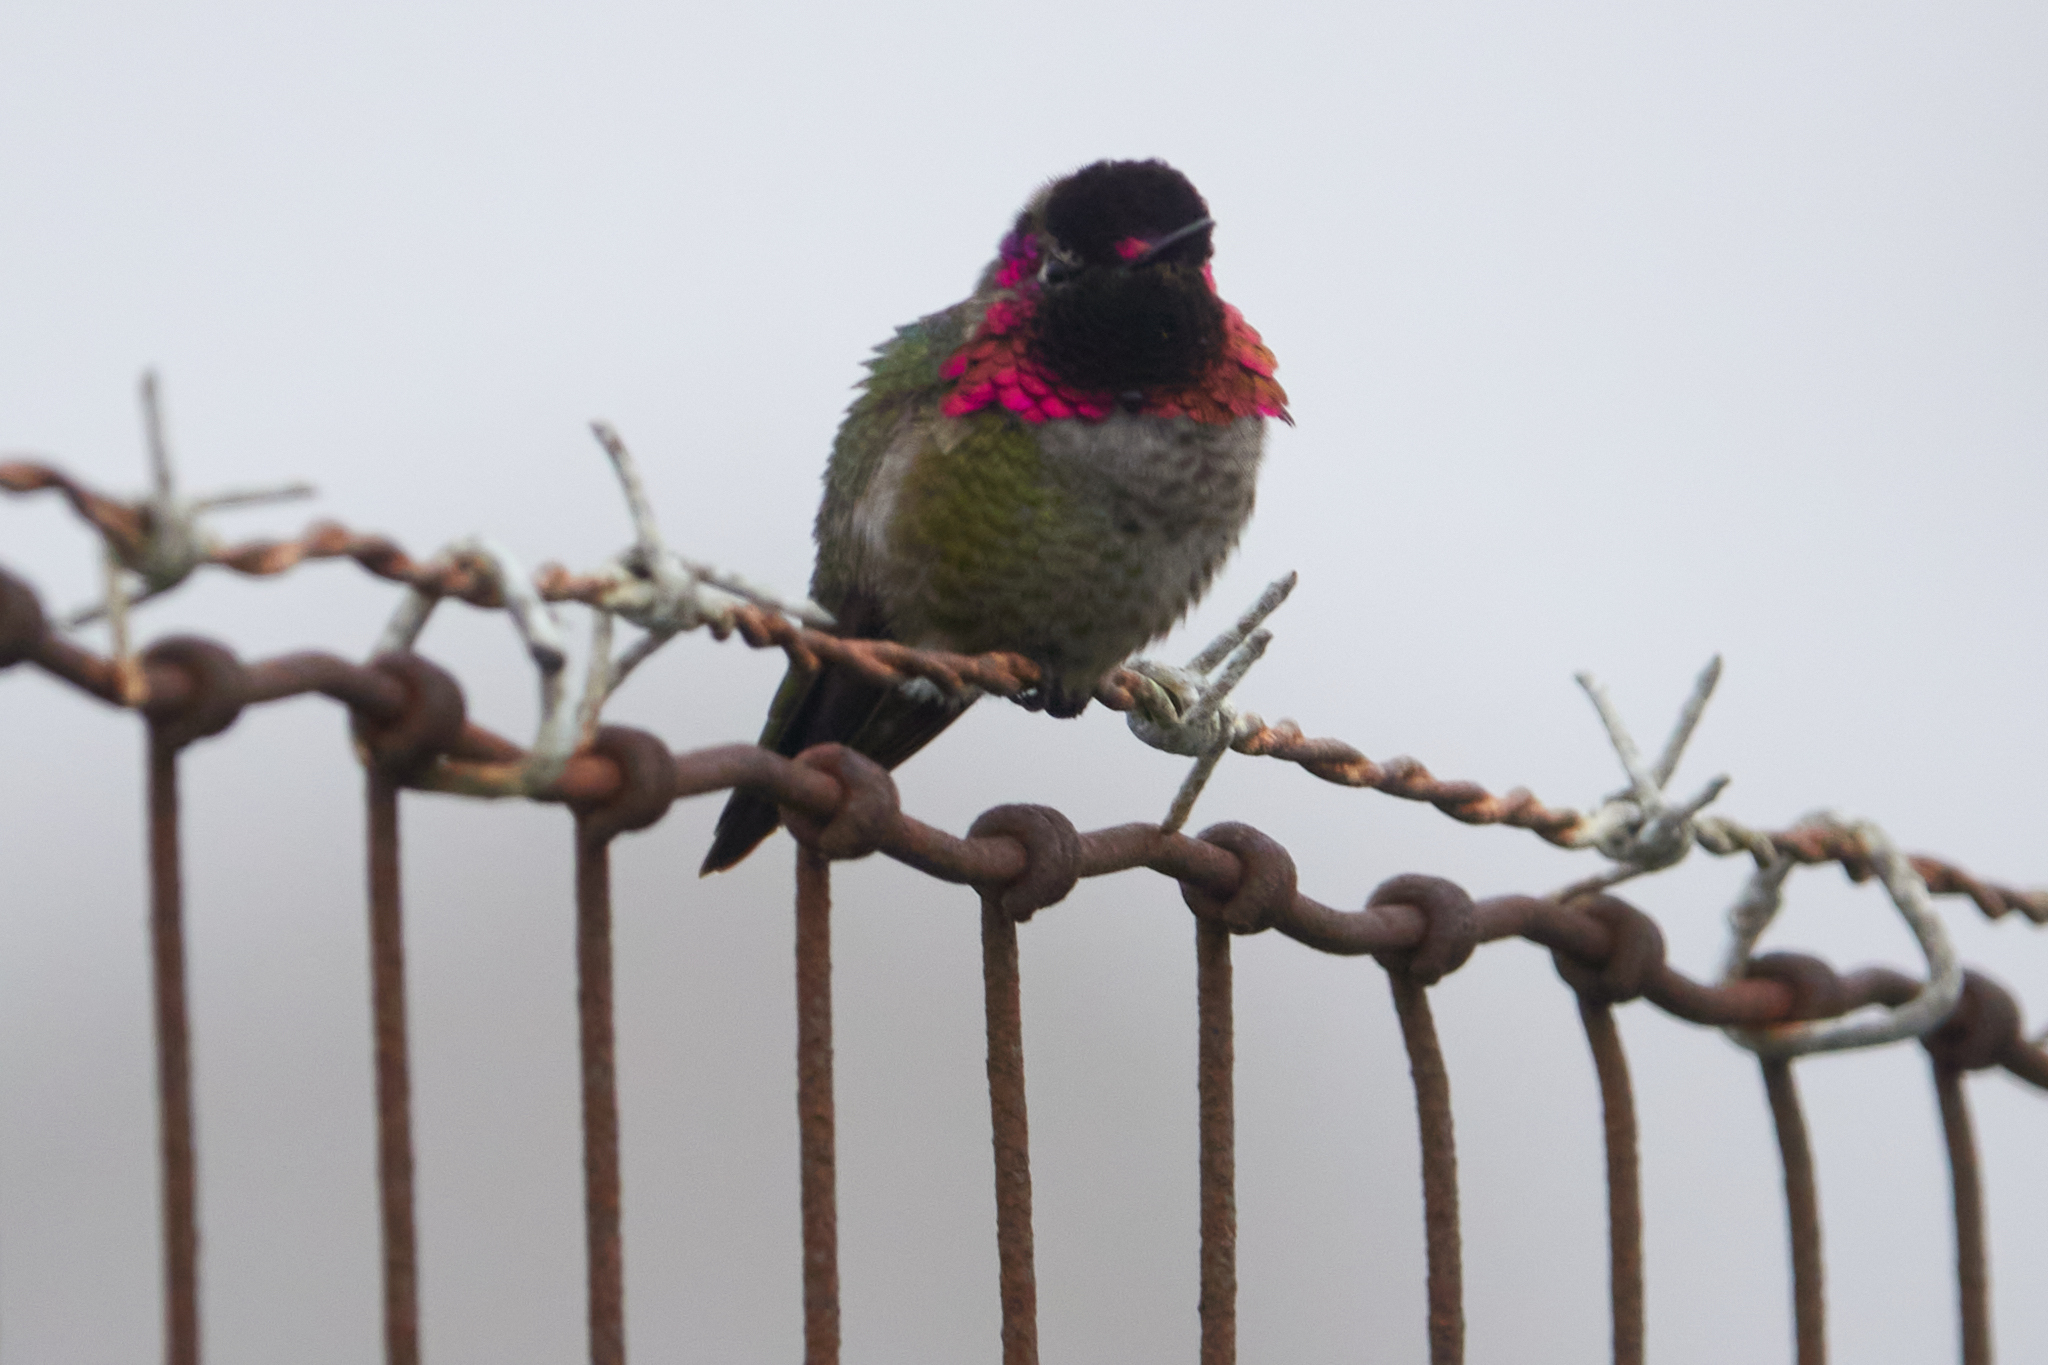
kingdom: Animalia
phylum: Chordata
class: Aves
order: Apodiformes
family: Trochilidae
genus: Calypte
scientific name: Calypte anna
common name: Anna's hummingbird
